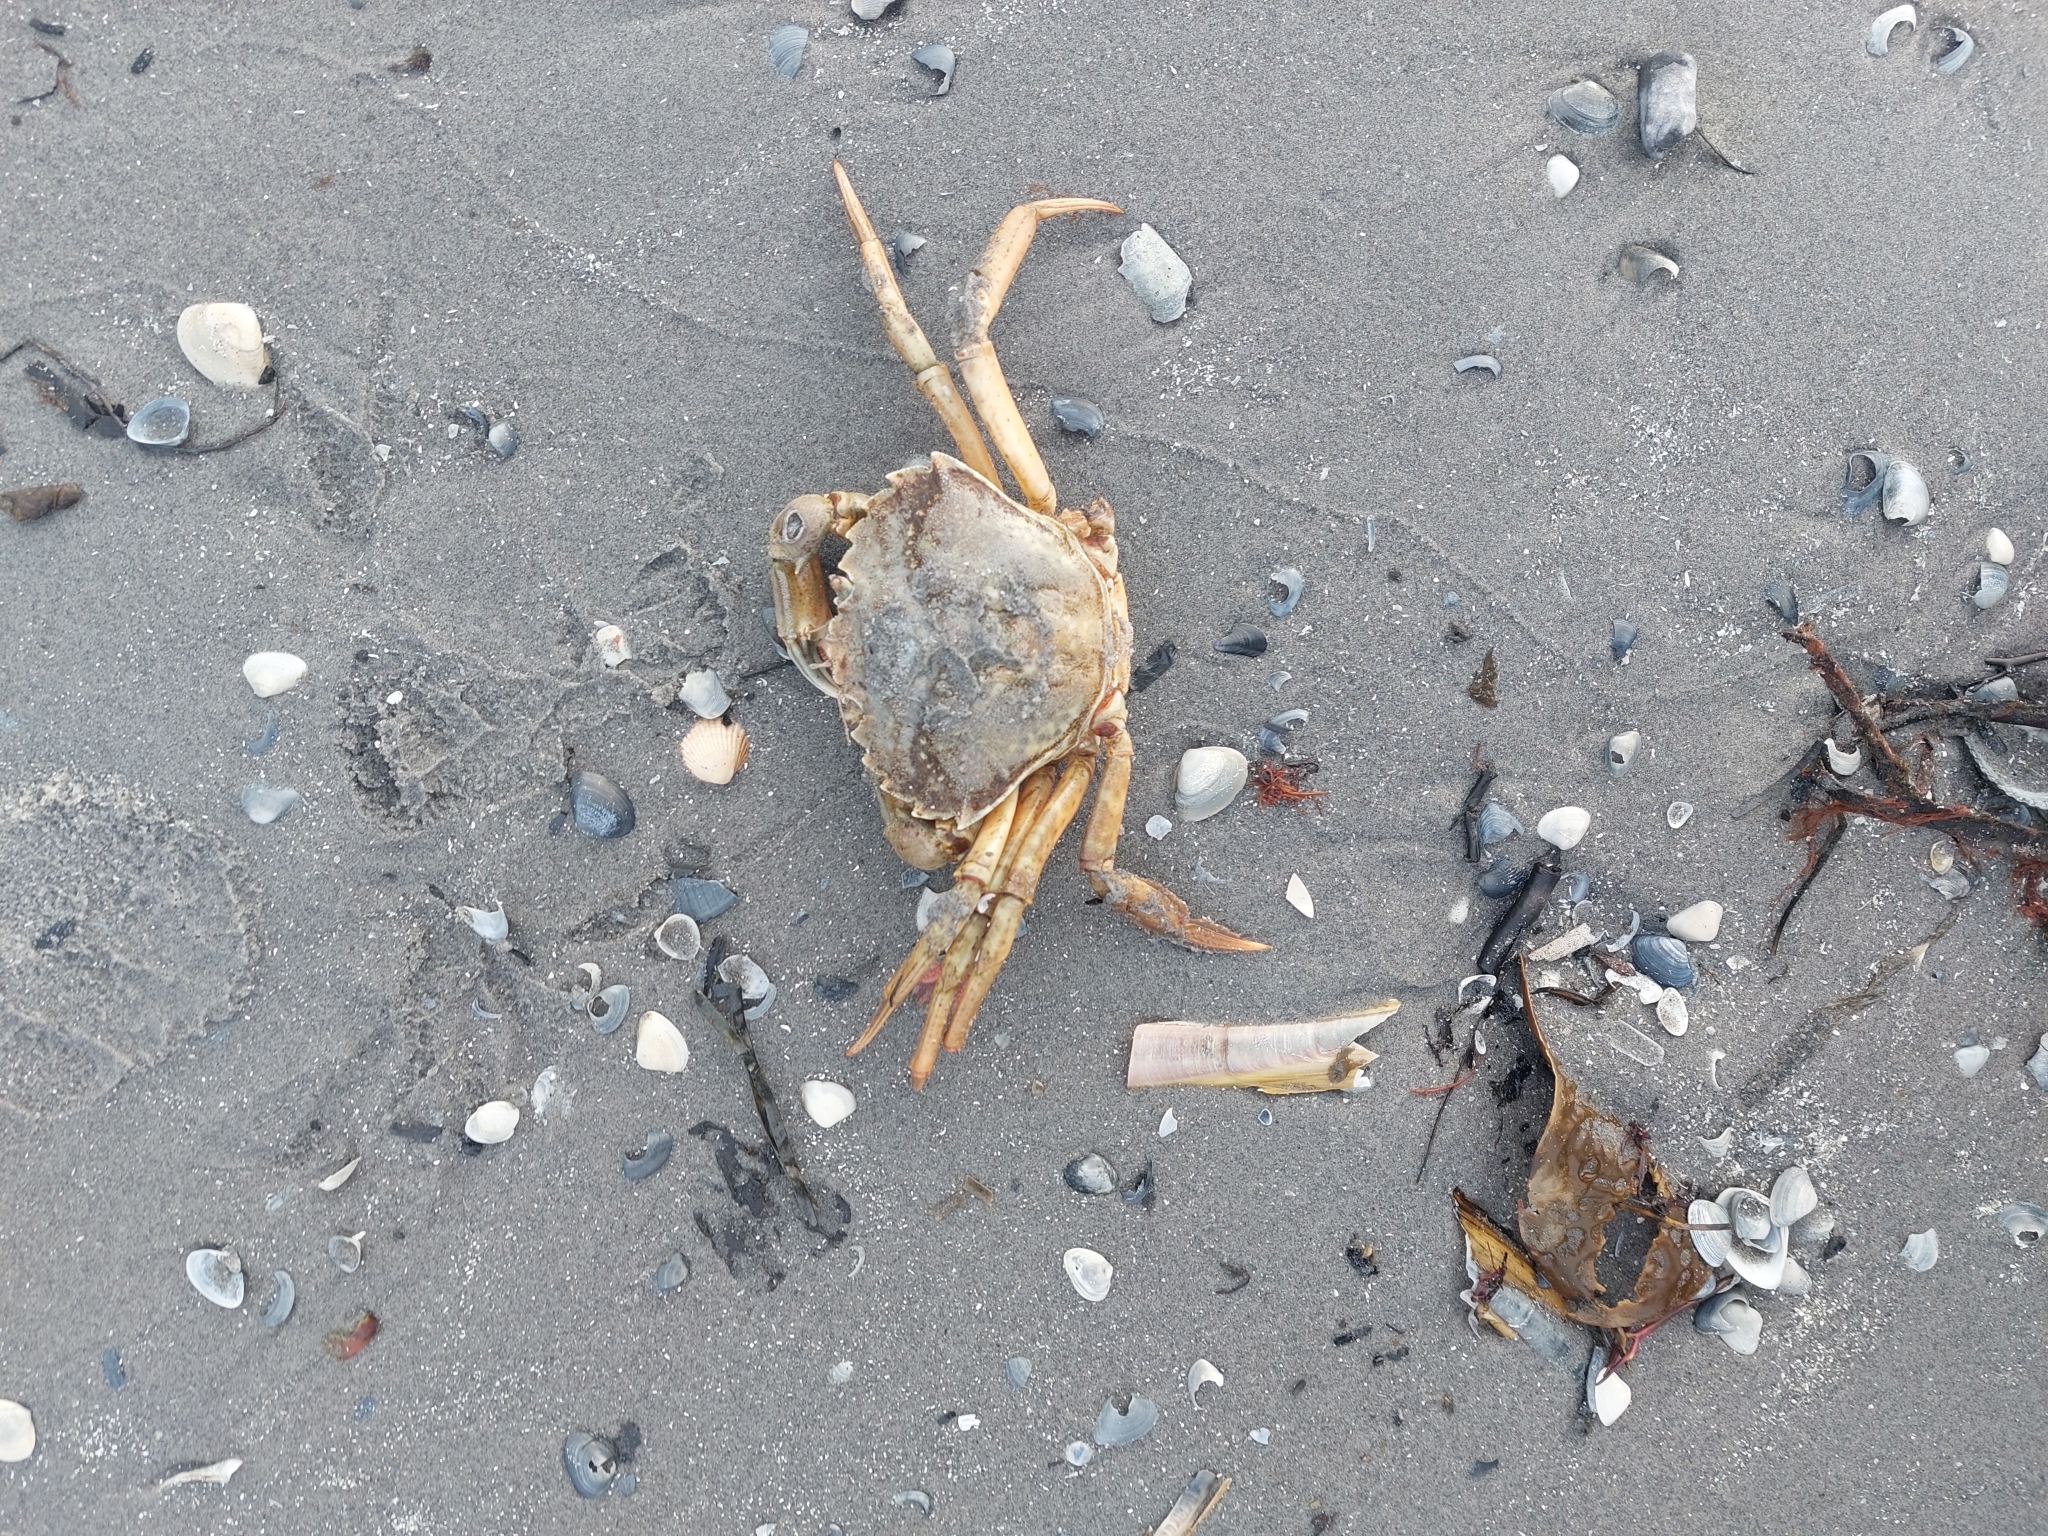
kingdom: Animalia
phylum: Arthropoda
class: Malacostraca
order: Decapoda
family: Carcinidae
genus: Carcinus
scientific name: Carcinus maenas
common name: European green crab
